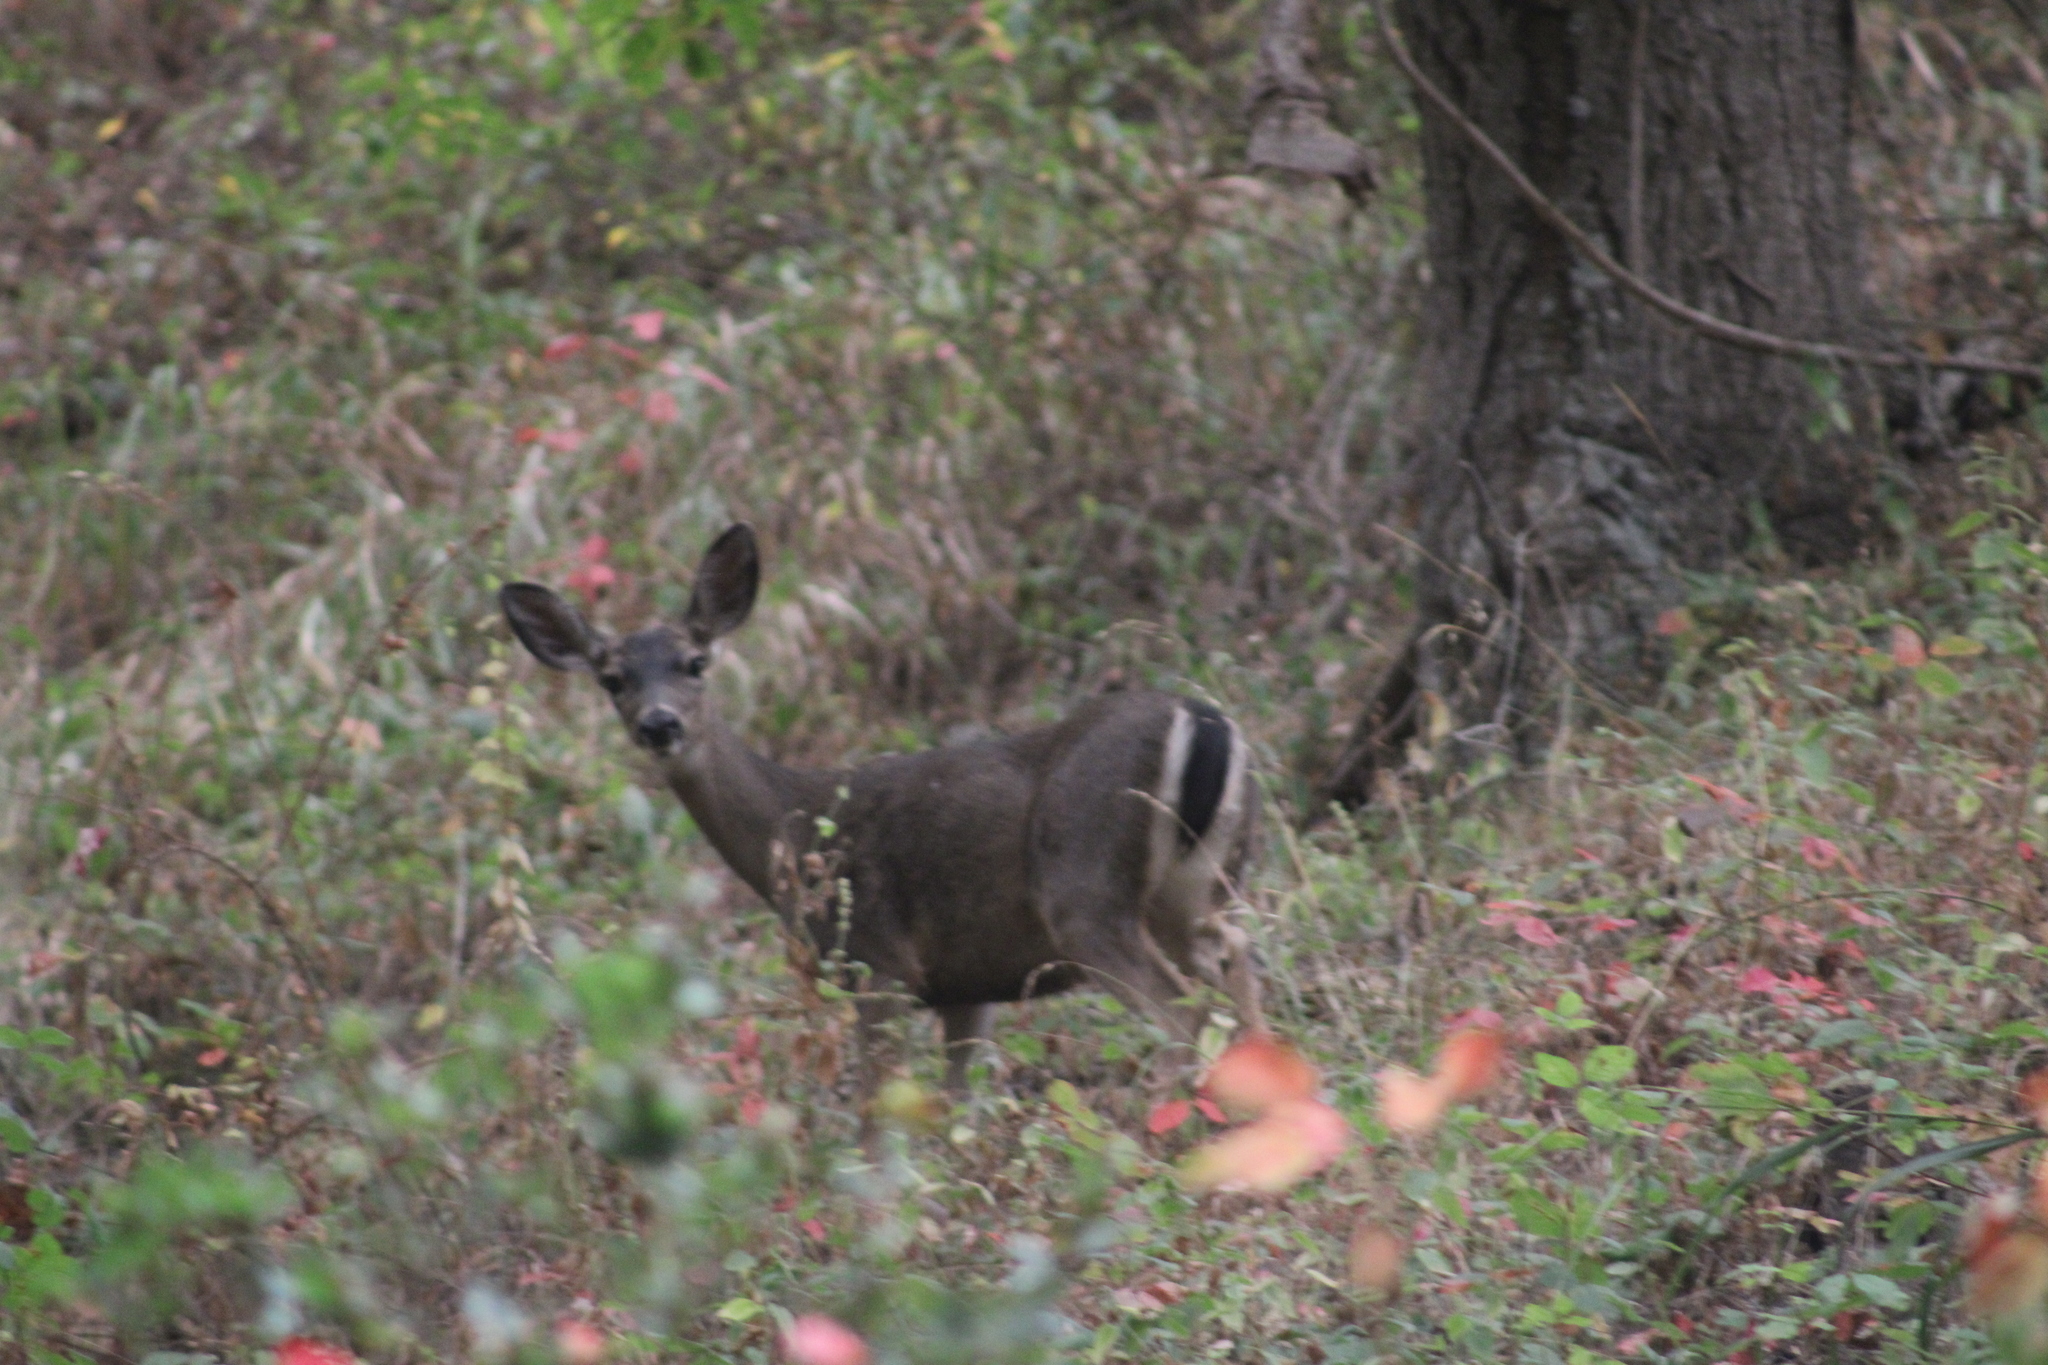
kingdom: Animalia
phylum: Chordata
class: Mammalia
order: Artiodactyla
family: Cervidae
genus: Odocoileus
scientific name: Odocoileus hemionus
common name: Mule deer
